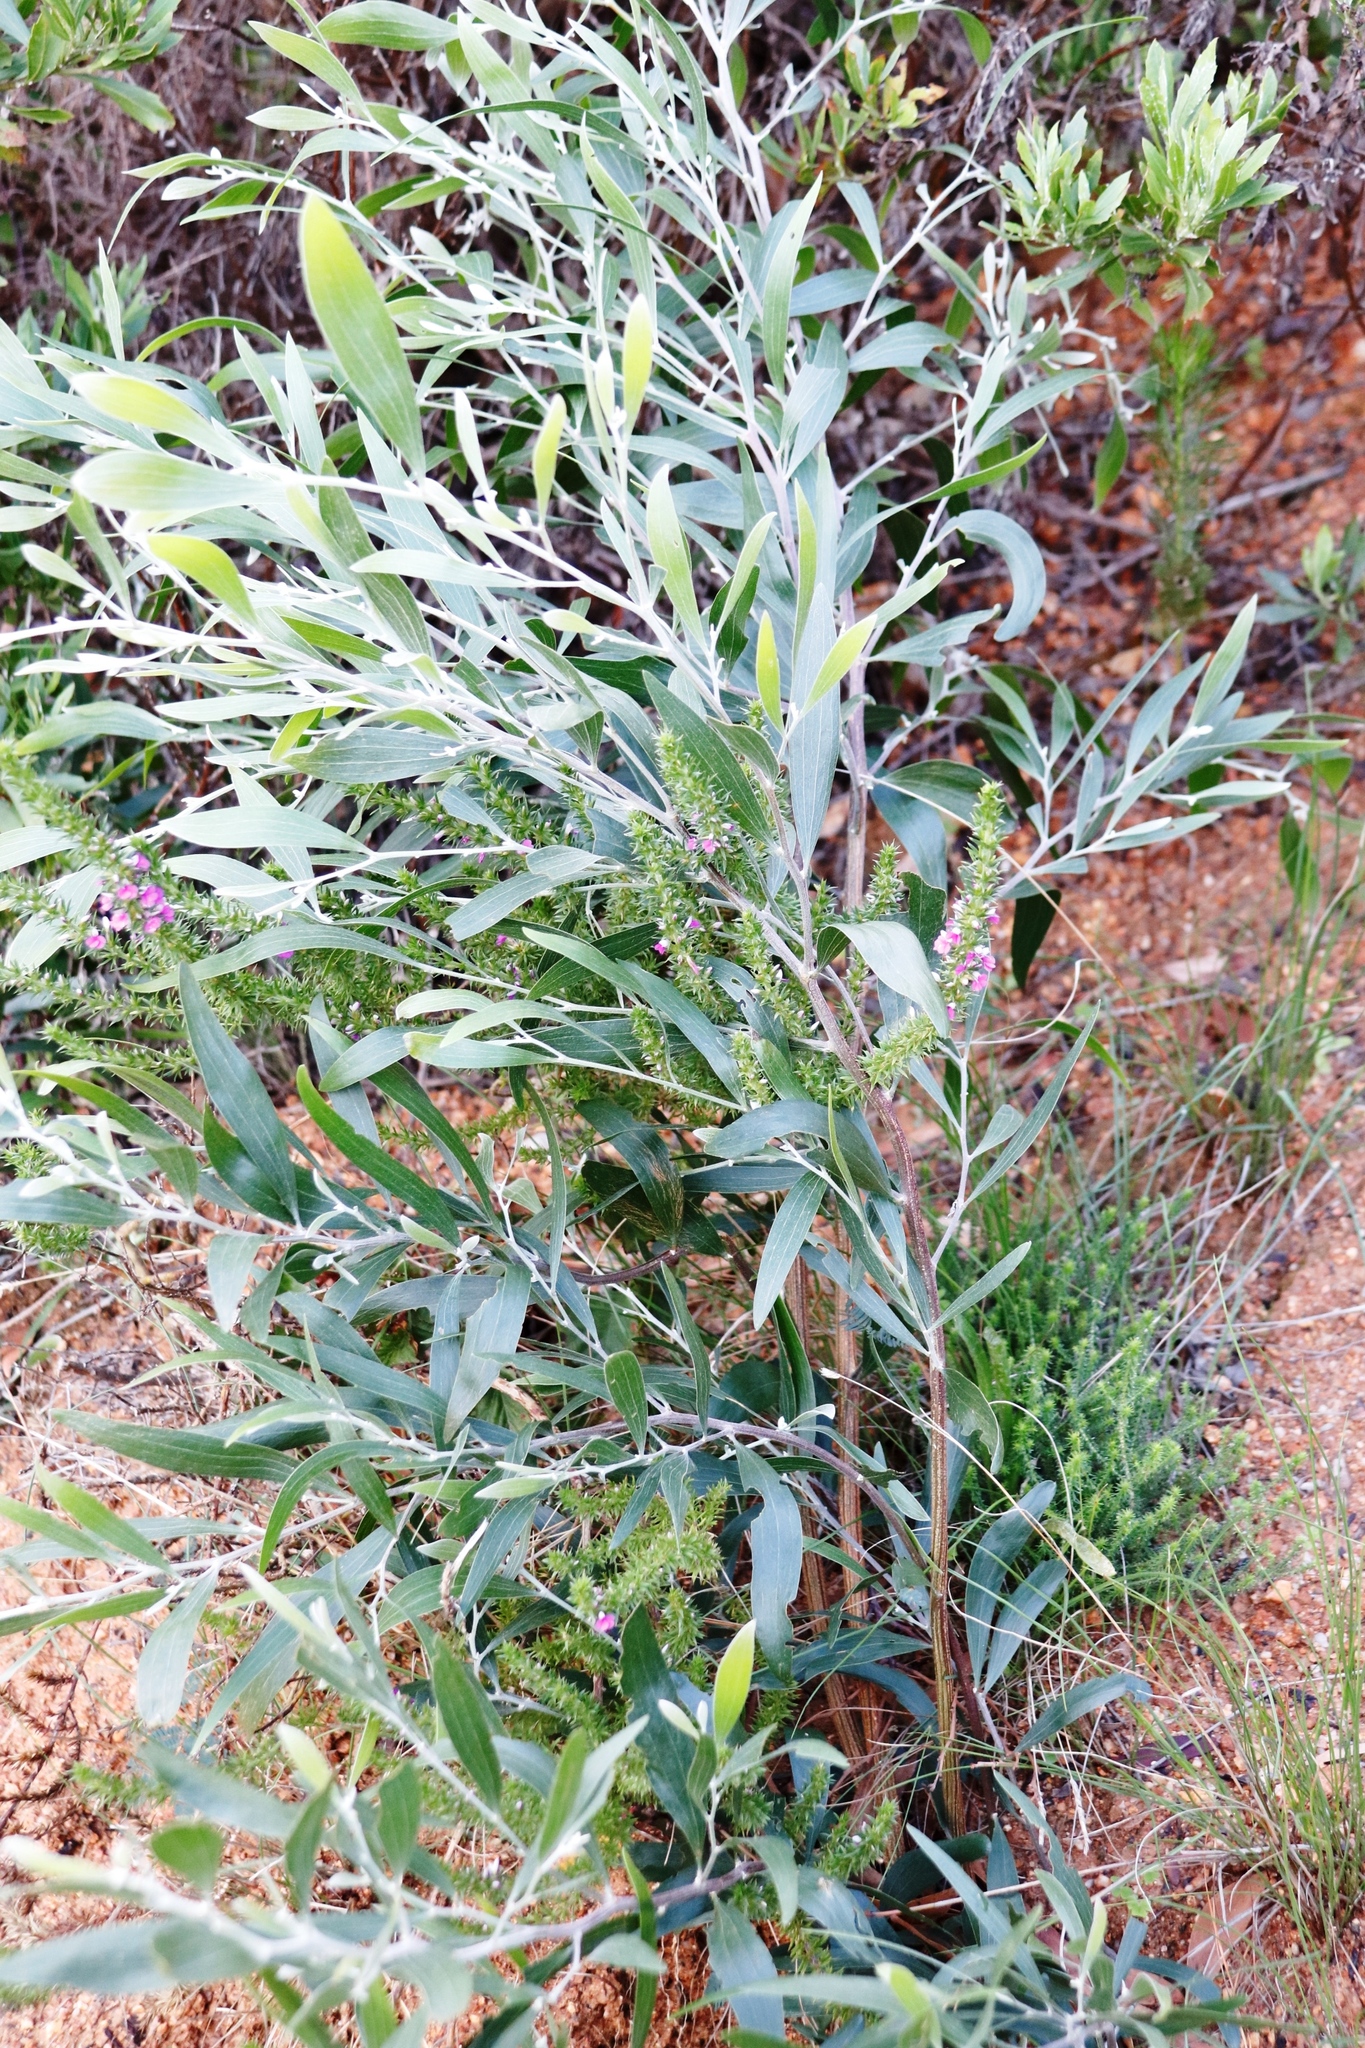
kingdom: Plantae
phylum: Tracheophyta
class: Magnoliopsida
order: Fabales
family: Polygalaceae
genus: Muraltia
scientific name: Muraltia heisteria
